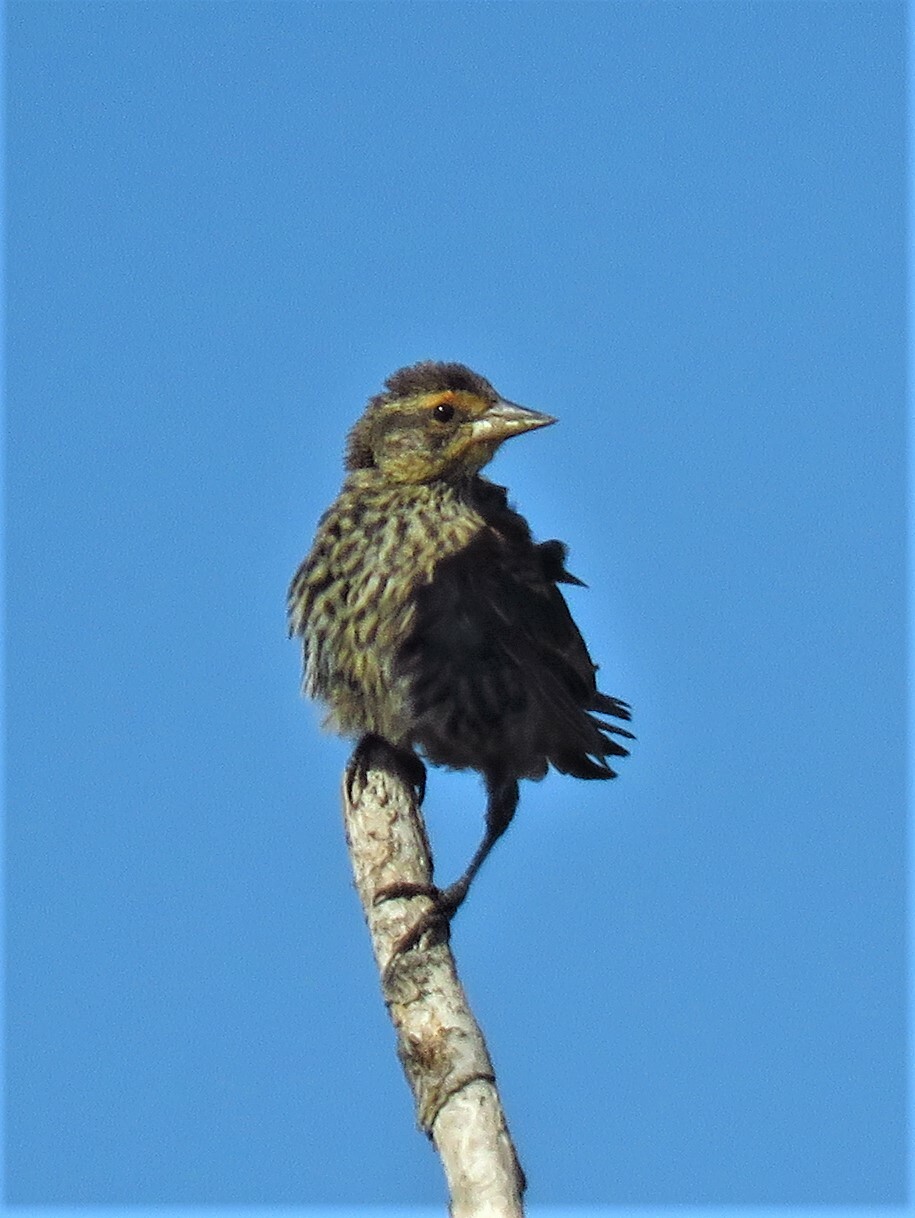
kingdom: Animalia
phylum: Chordata
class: Aves
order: Passeriformes
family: Icteridae
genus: Agelaius
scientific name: Agelaius phoeniceus
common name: Red-winged blackbird
